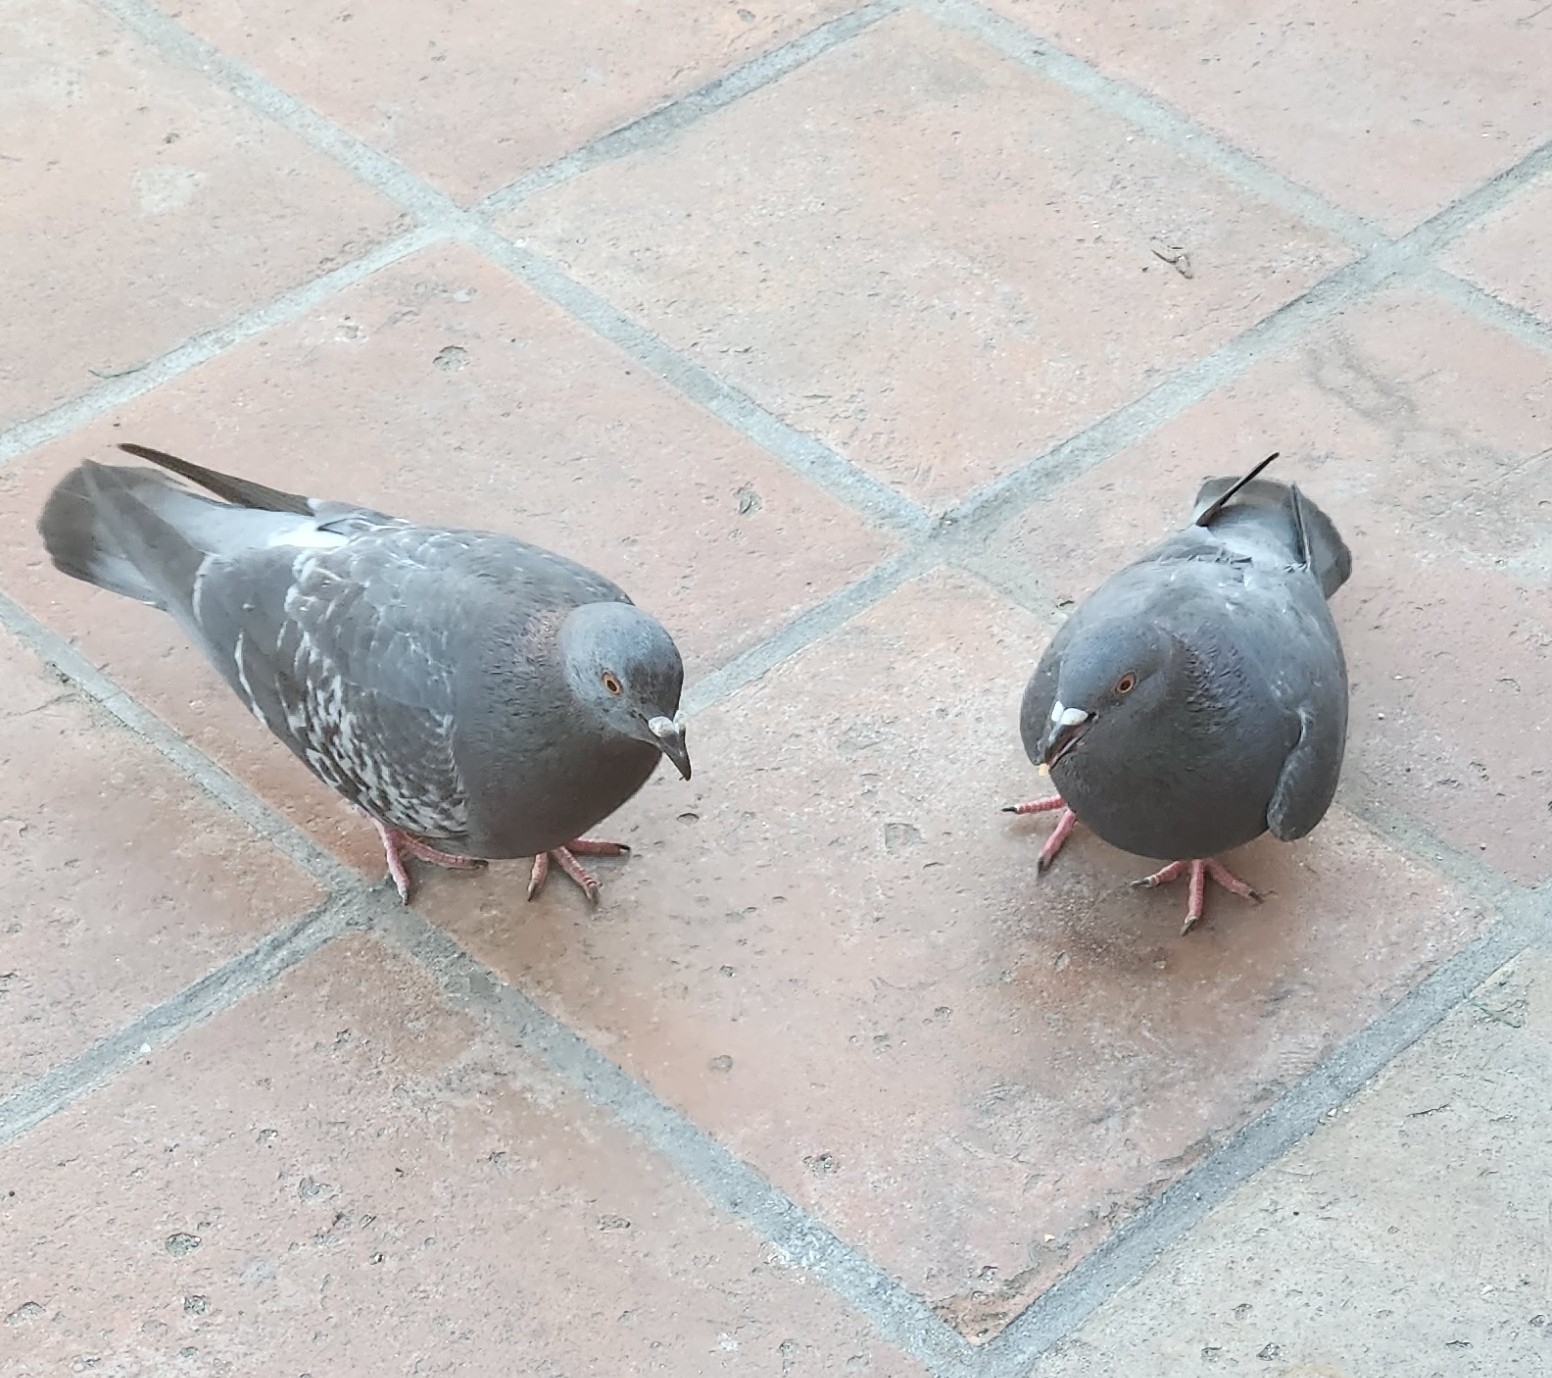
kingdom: Animalia
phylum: Chordata
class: Aves
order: Columbiformes
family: Columbidae
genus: Columba
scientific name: Columba livia
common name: Rock pigeon
